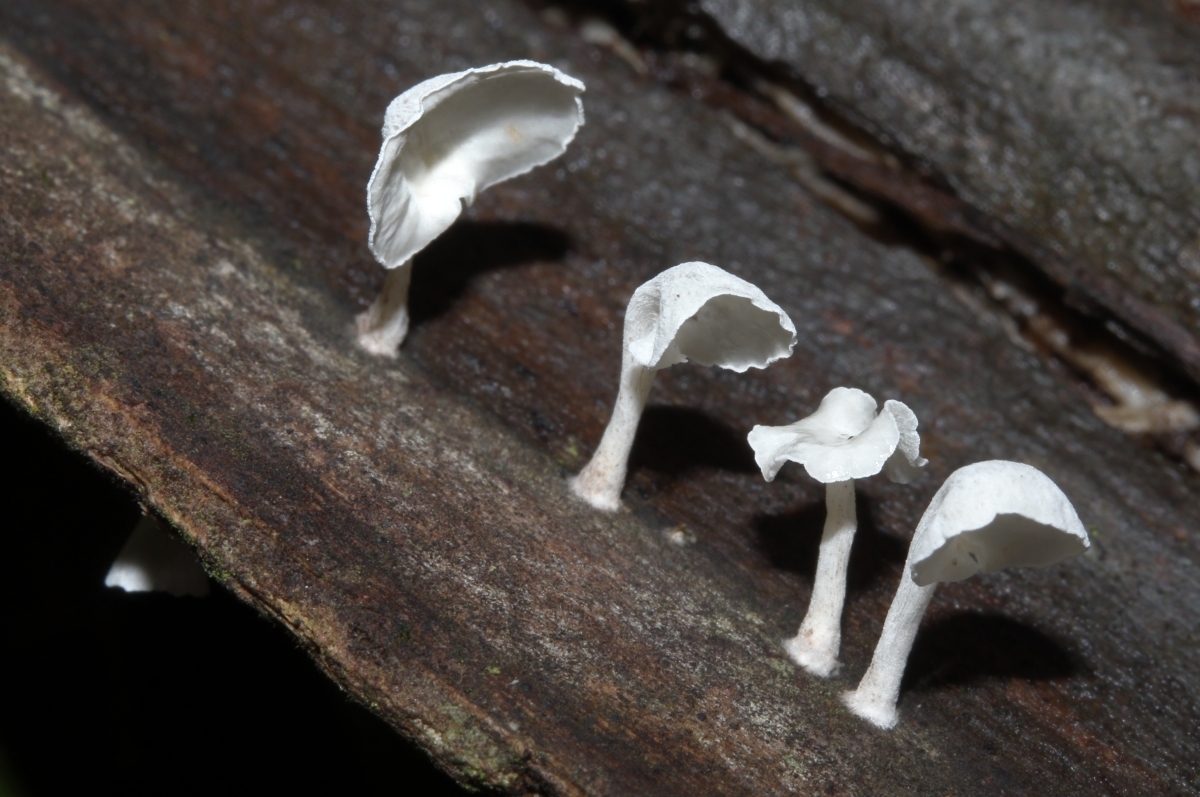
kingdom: Fungi
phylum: Basidiomycota
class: Agaricomycetes
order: Agaricales
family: Marasmiaceae
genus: Stipitocyphella
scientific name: Stipitocyphella
